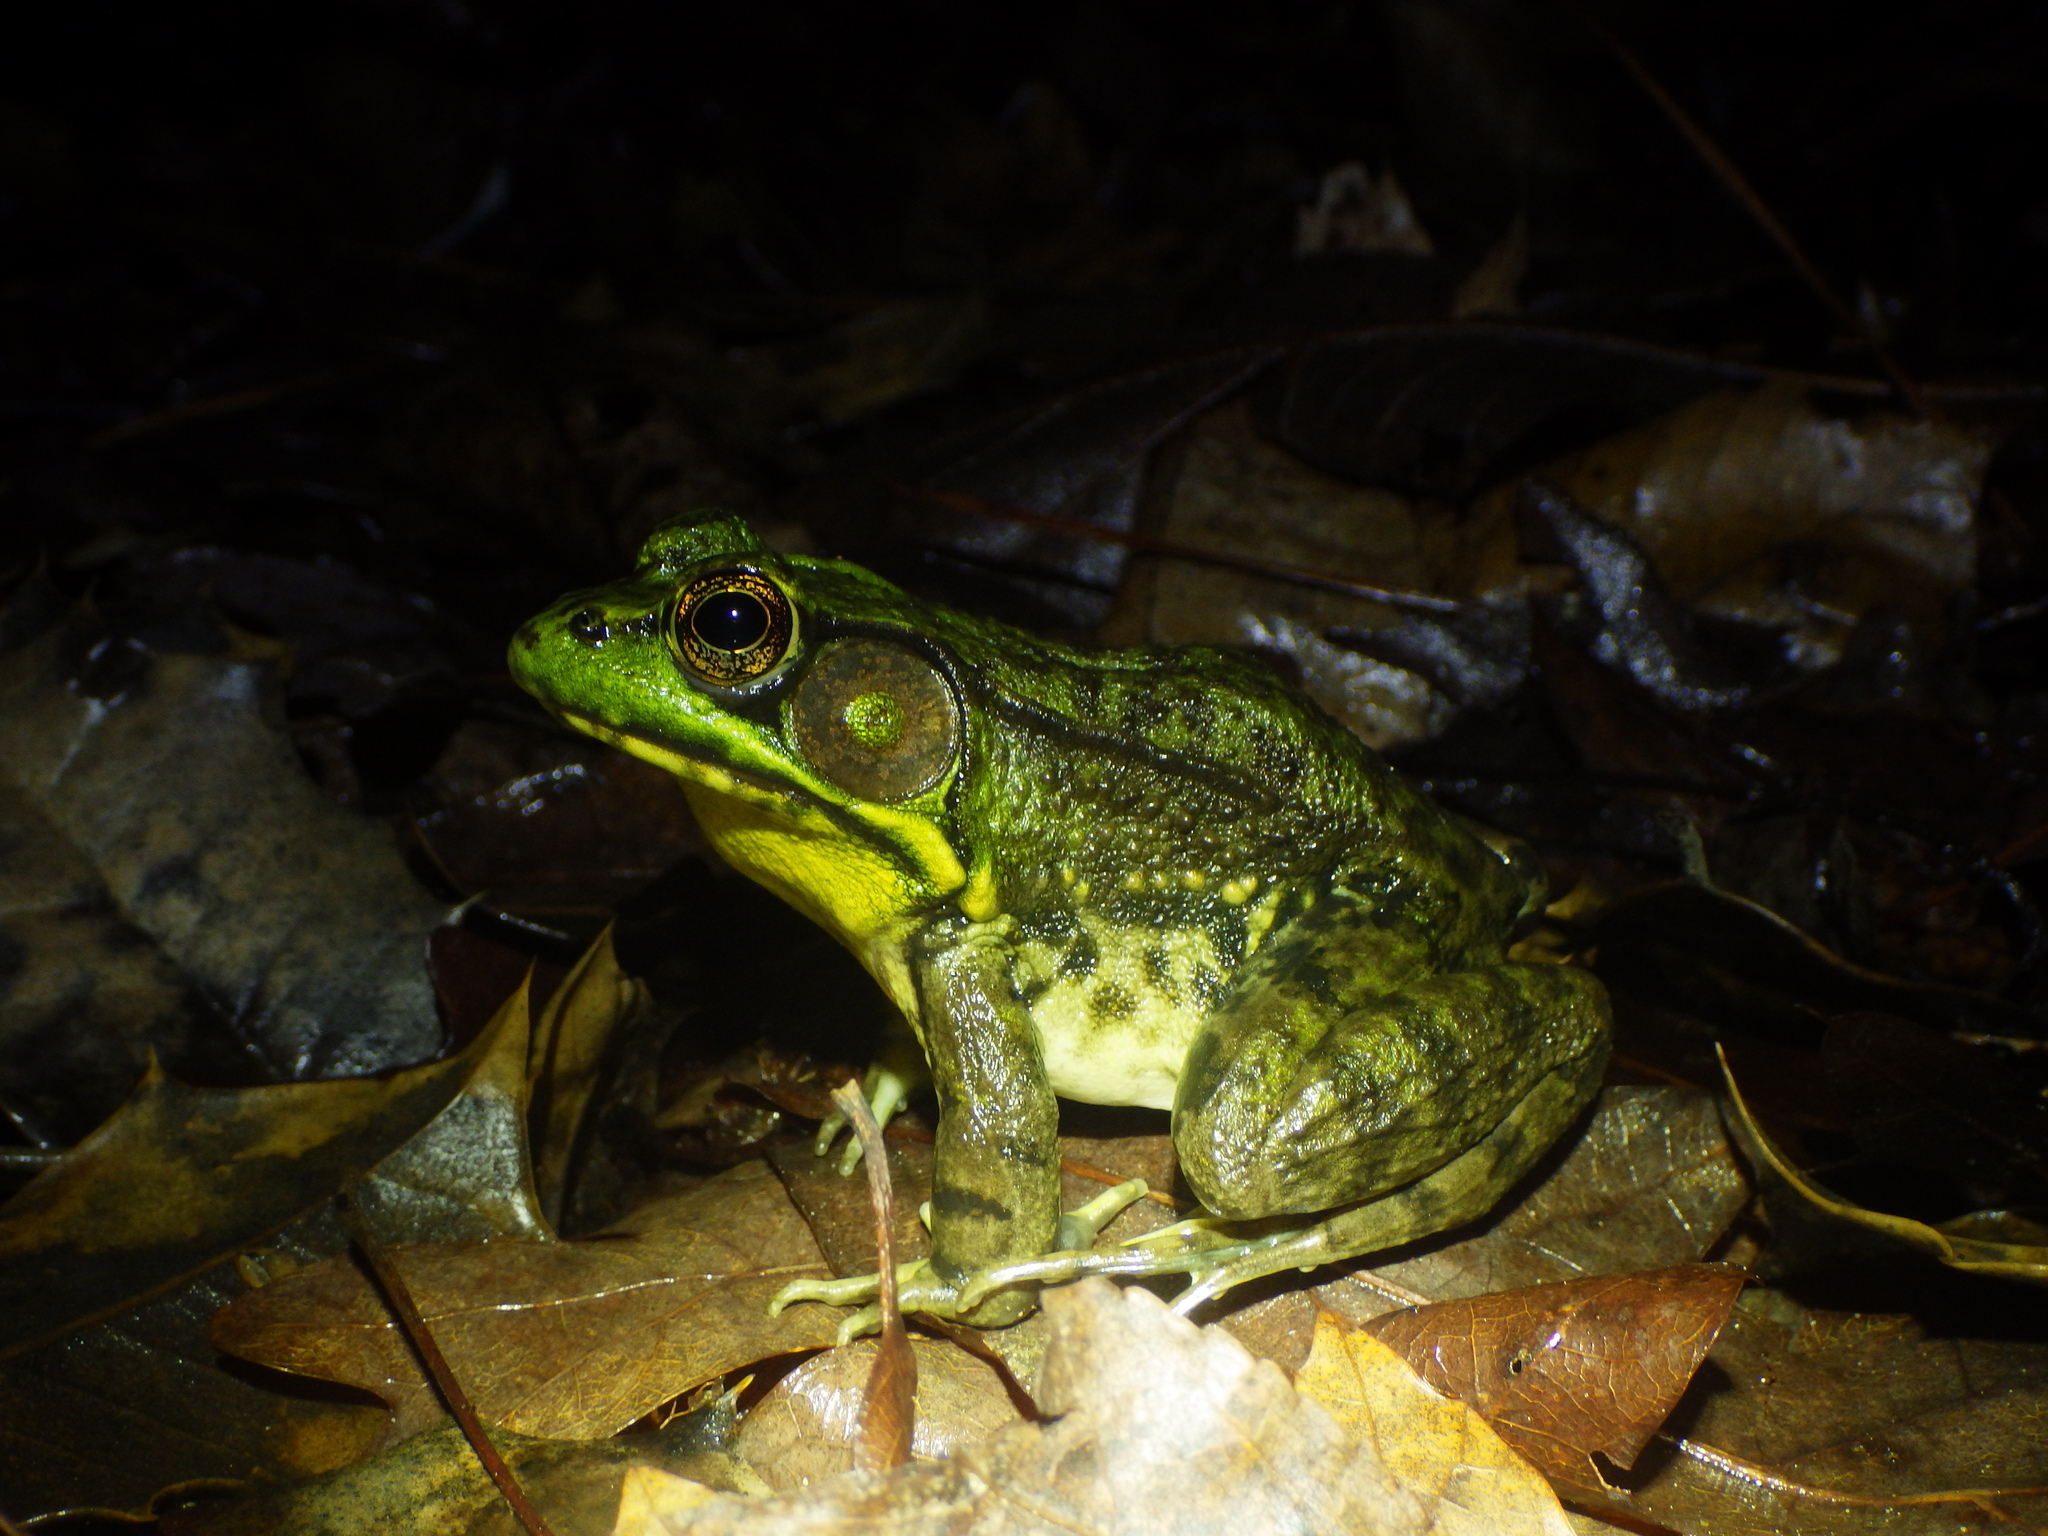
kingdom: Animalia
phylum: Chordata
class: Amphibia
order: Anura
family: Ranidae
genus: Lithobates
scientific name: Lithobates clamitans
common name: Green frog
